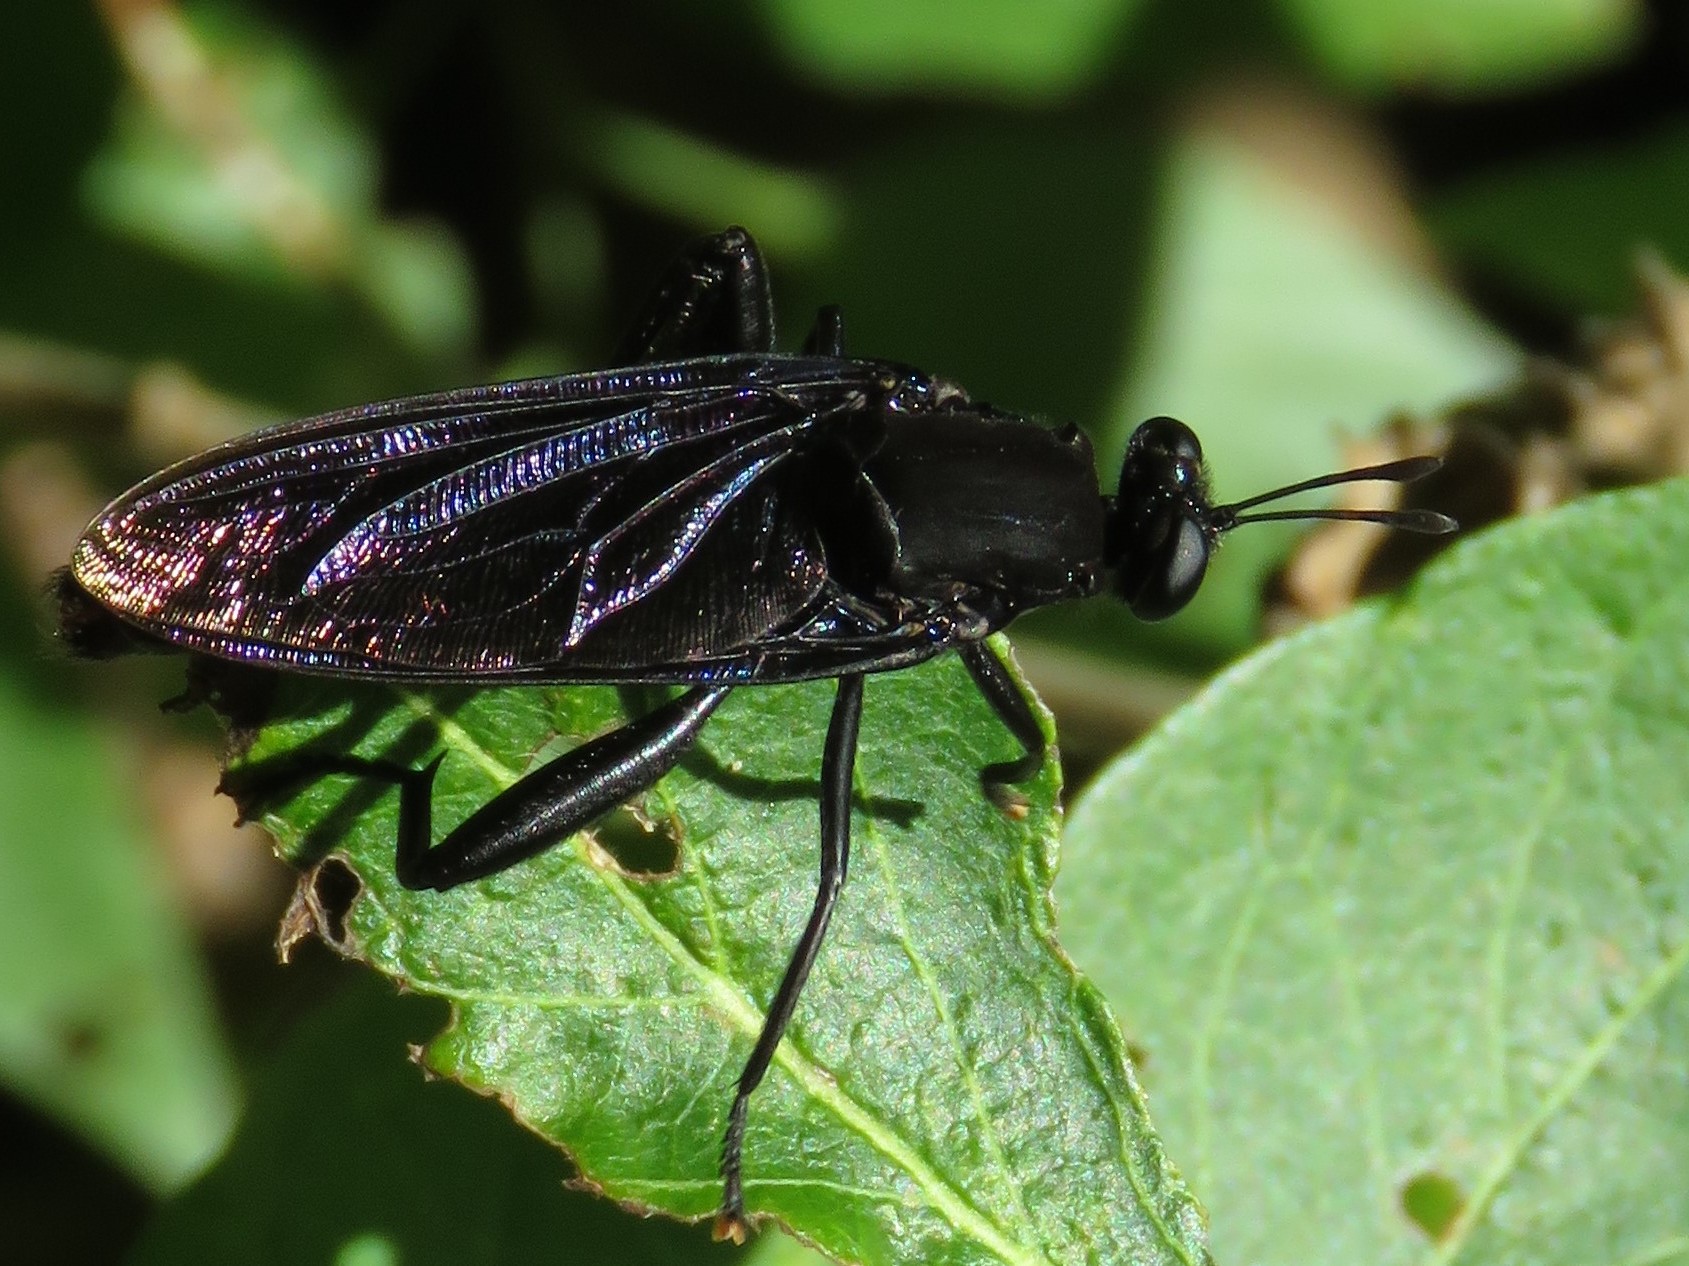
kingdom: Animalia
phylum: Arthropoda
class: Insecta
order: Diptera
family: Mydidae
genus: Mydas
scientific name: Mydas clavatus
